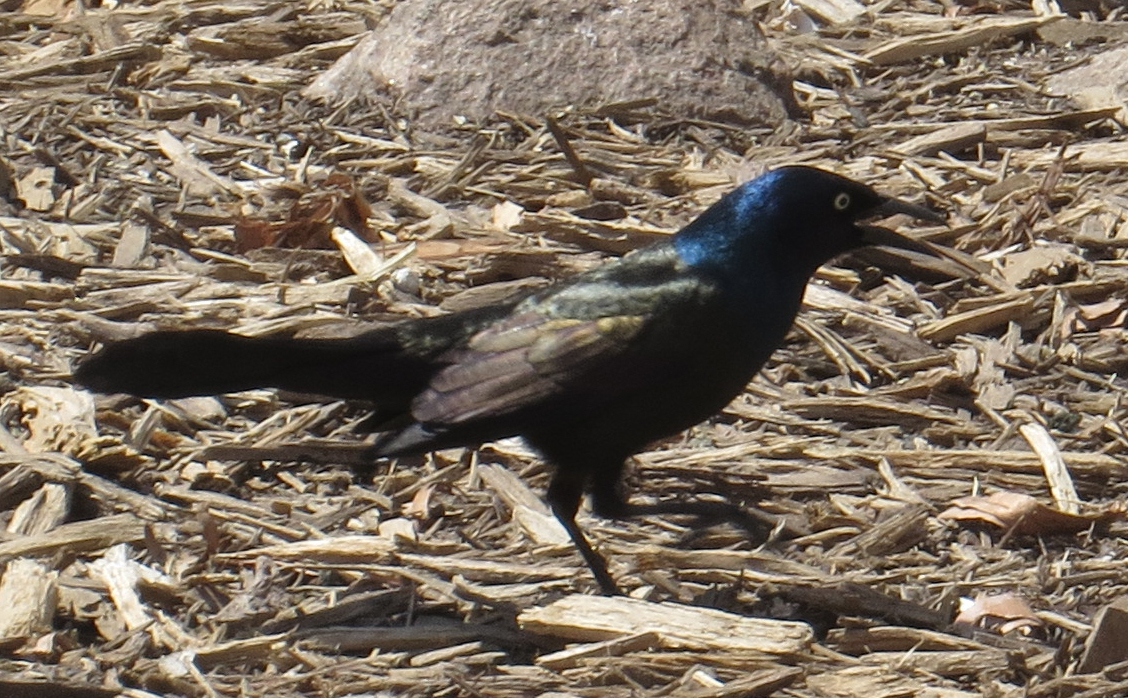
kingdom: Animalia
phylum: Chordata
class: Aves
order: Passeriformes
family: Icteridae
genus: Quiscalus
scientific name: Quiscalus quiscula
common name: Common grackle
